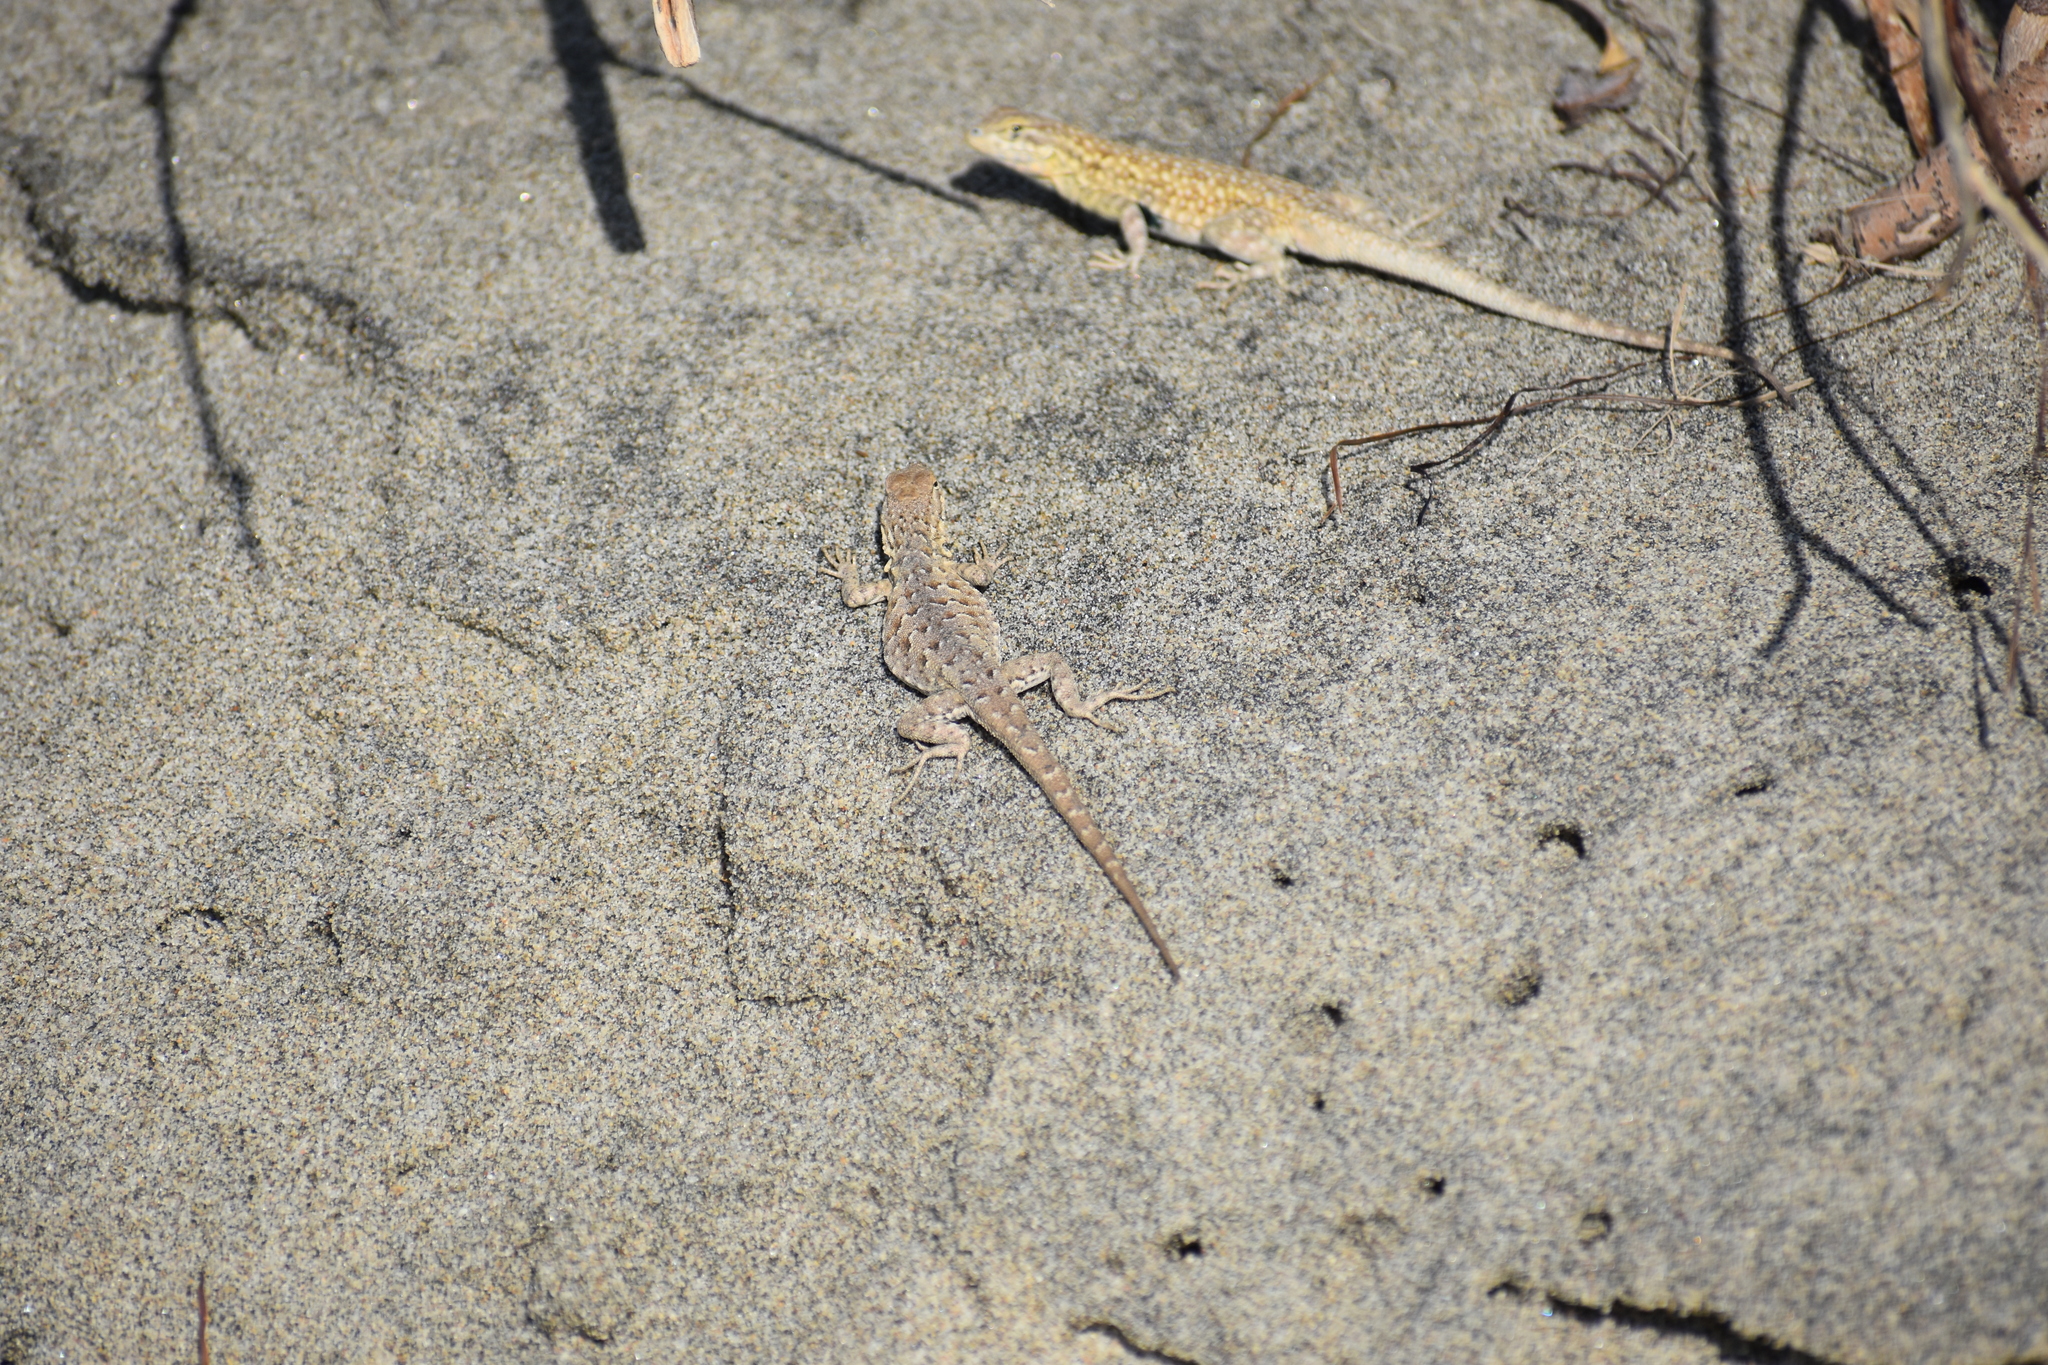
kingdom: Animalia
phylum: Chordata
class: Squamata
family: Phrynosomatidae
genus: Uta
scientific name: Uta stansburiana
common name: Side-blotched lizard
